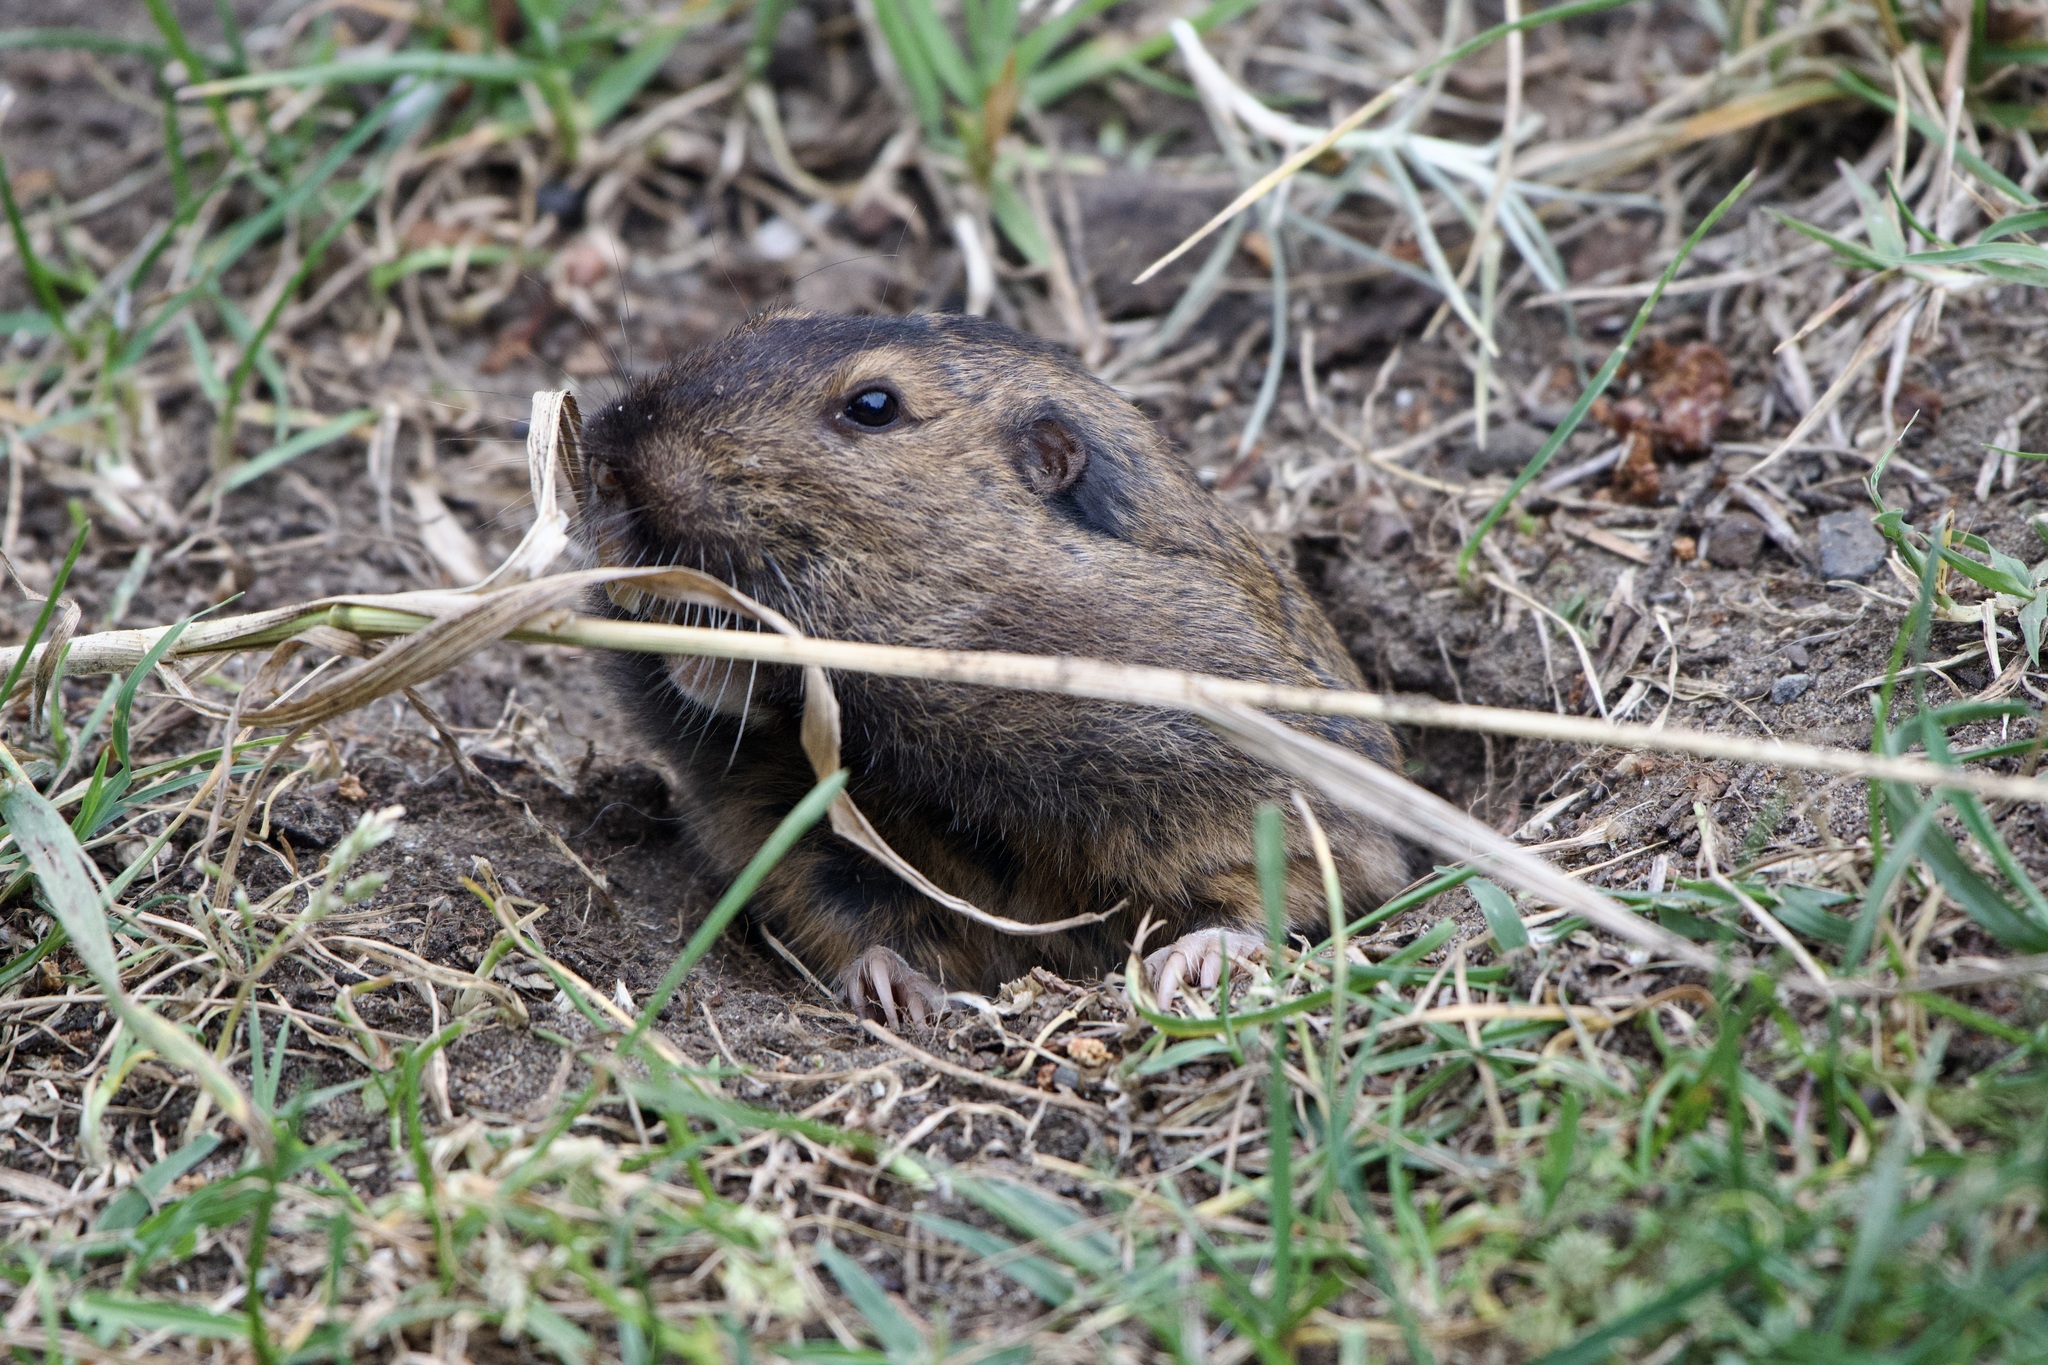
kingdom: Animalia
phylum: Chordata
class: Mammalia
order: Rodentia
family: Geomyidae
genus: Thomomys
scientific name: Thomomys bottae
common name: Botta's pocket gopher
